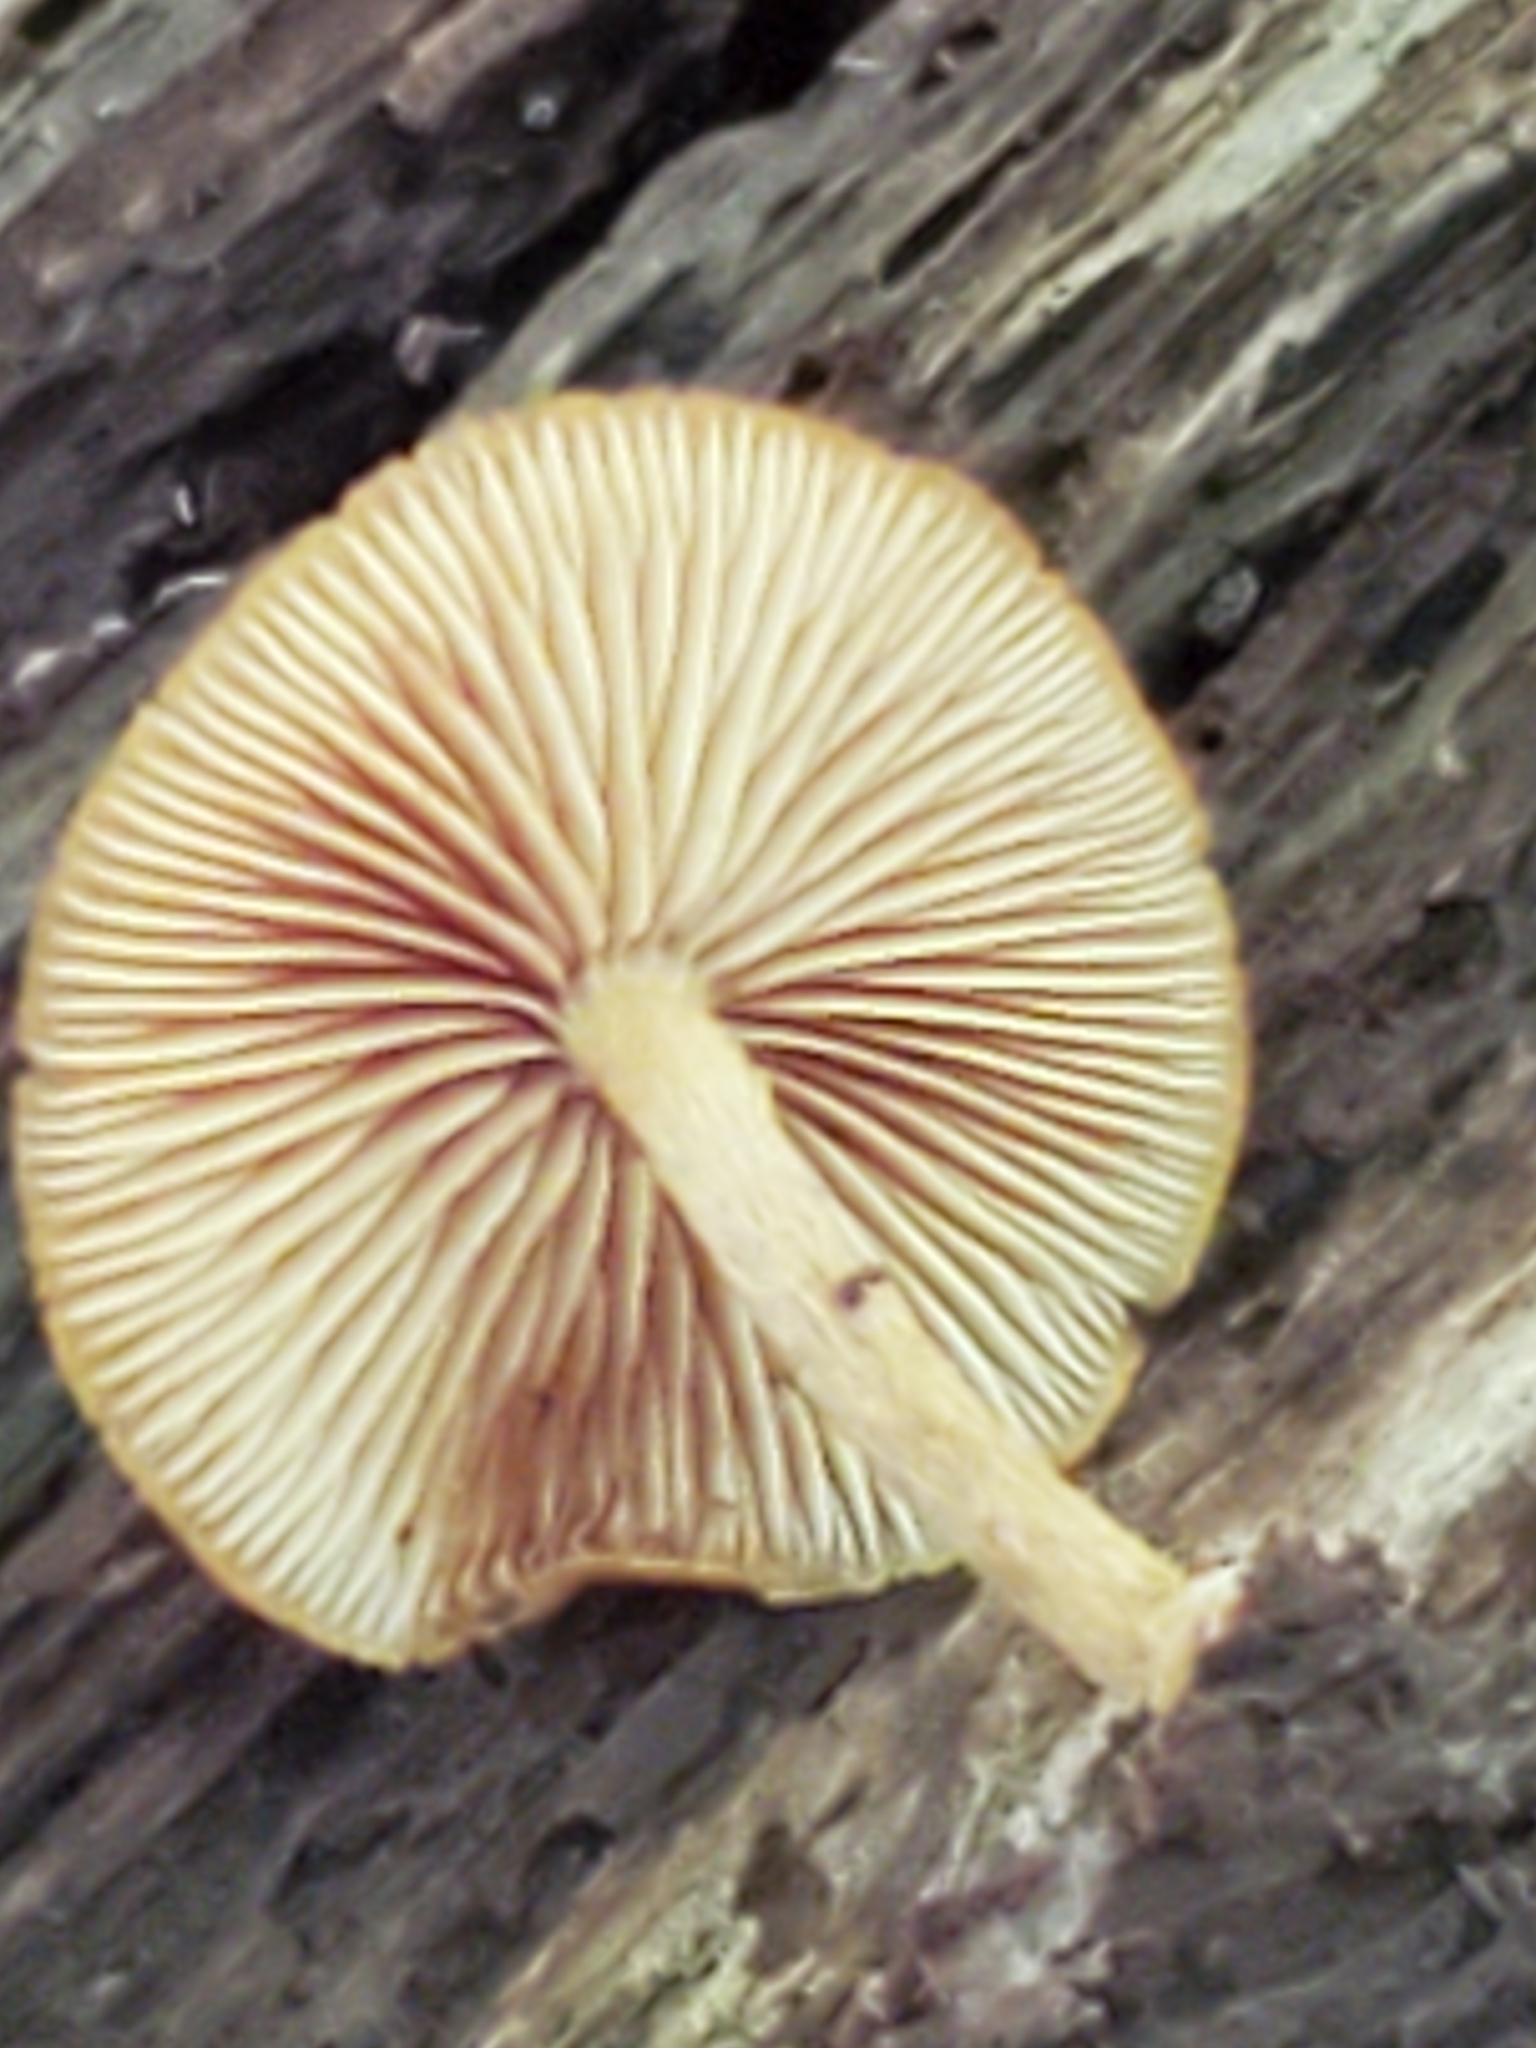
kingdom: Fungi
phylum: Basidiomycota
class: Agaricomycetes
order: Agaricales
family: Strophariaceae
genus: Pholiota
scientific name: Pholiota granulosa
